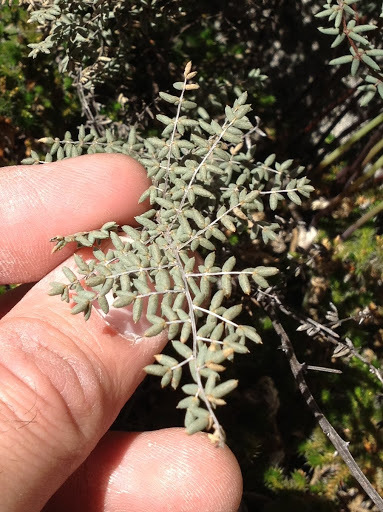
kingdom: Plantae
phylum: Tracheophyta
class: Polypodiopsida
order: Polypodiales
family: Pteridaceae
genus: Pellaea
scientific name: Pellaea mucronata
